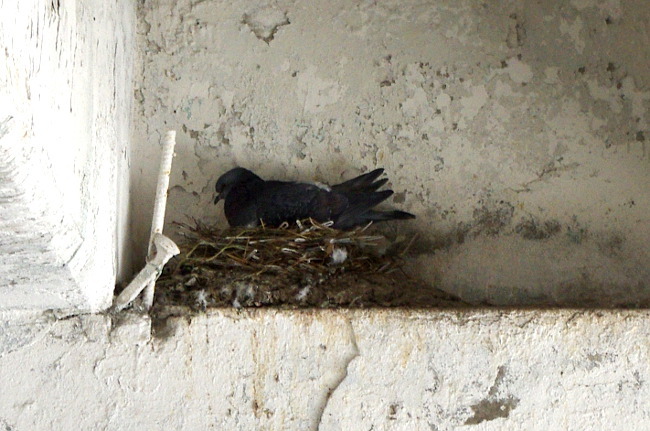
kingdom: Animalia
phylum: Chordata
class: Aves
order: Columbiformes
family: Columbidae
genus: Columba
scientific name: Columba livia
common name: Rock pigeon
